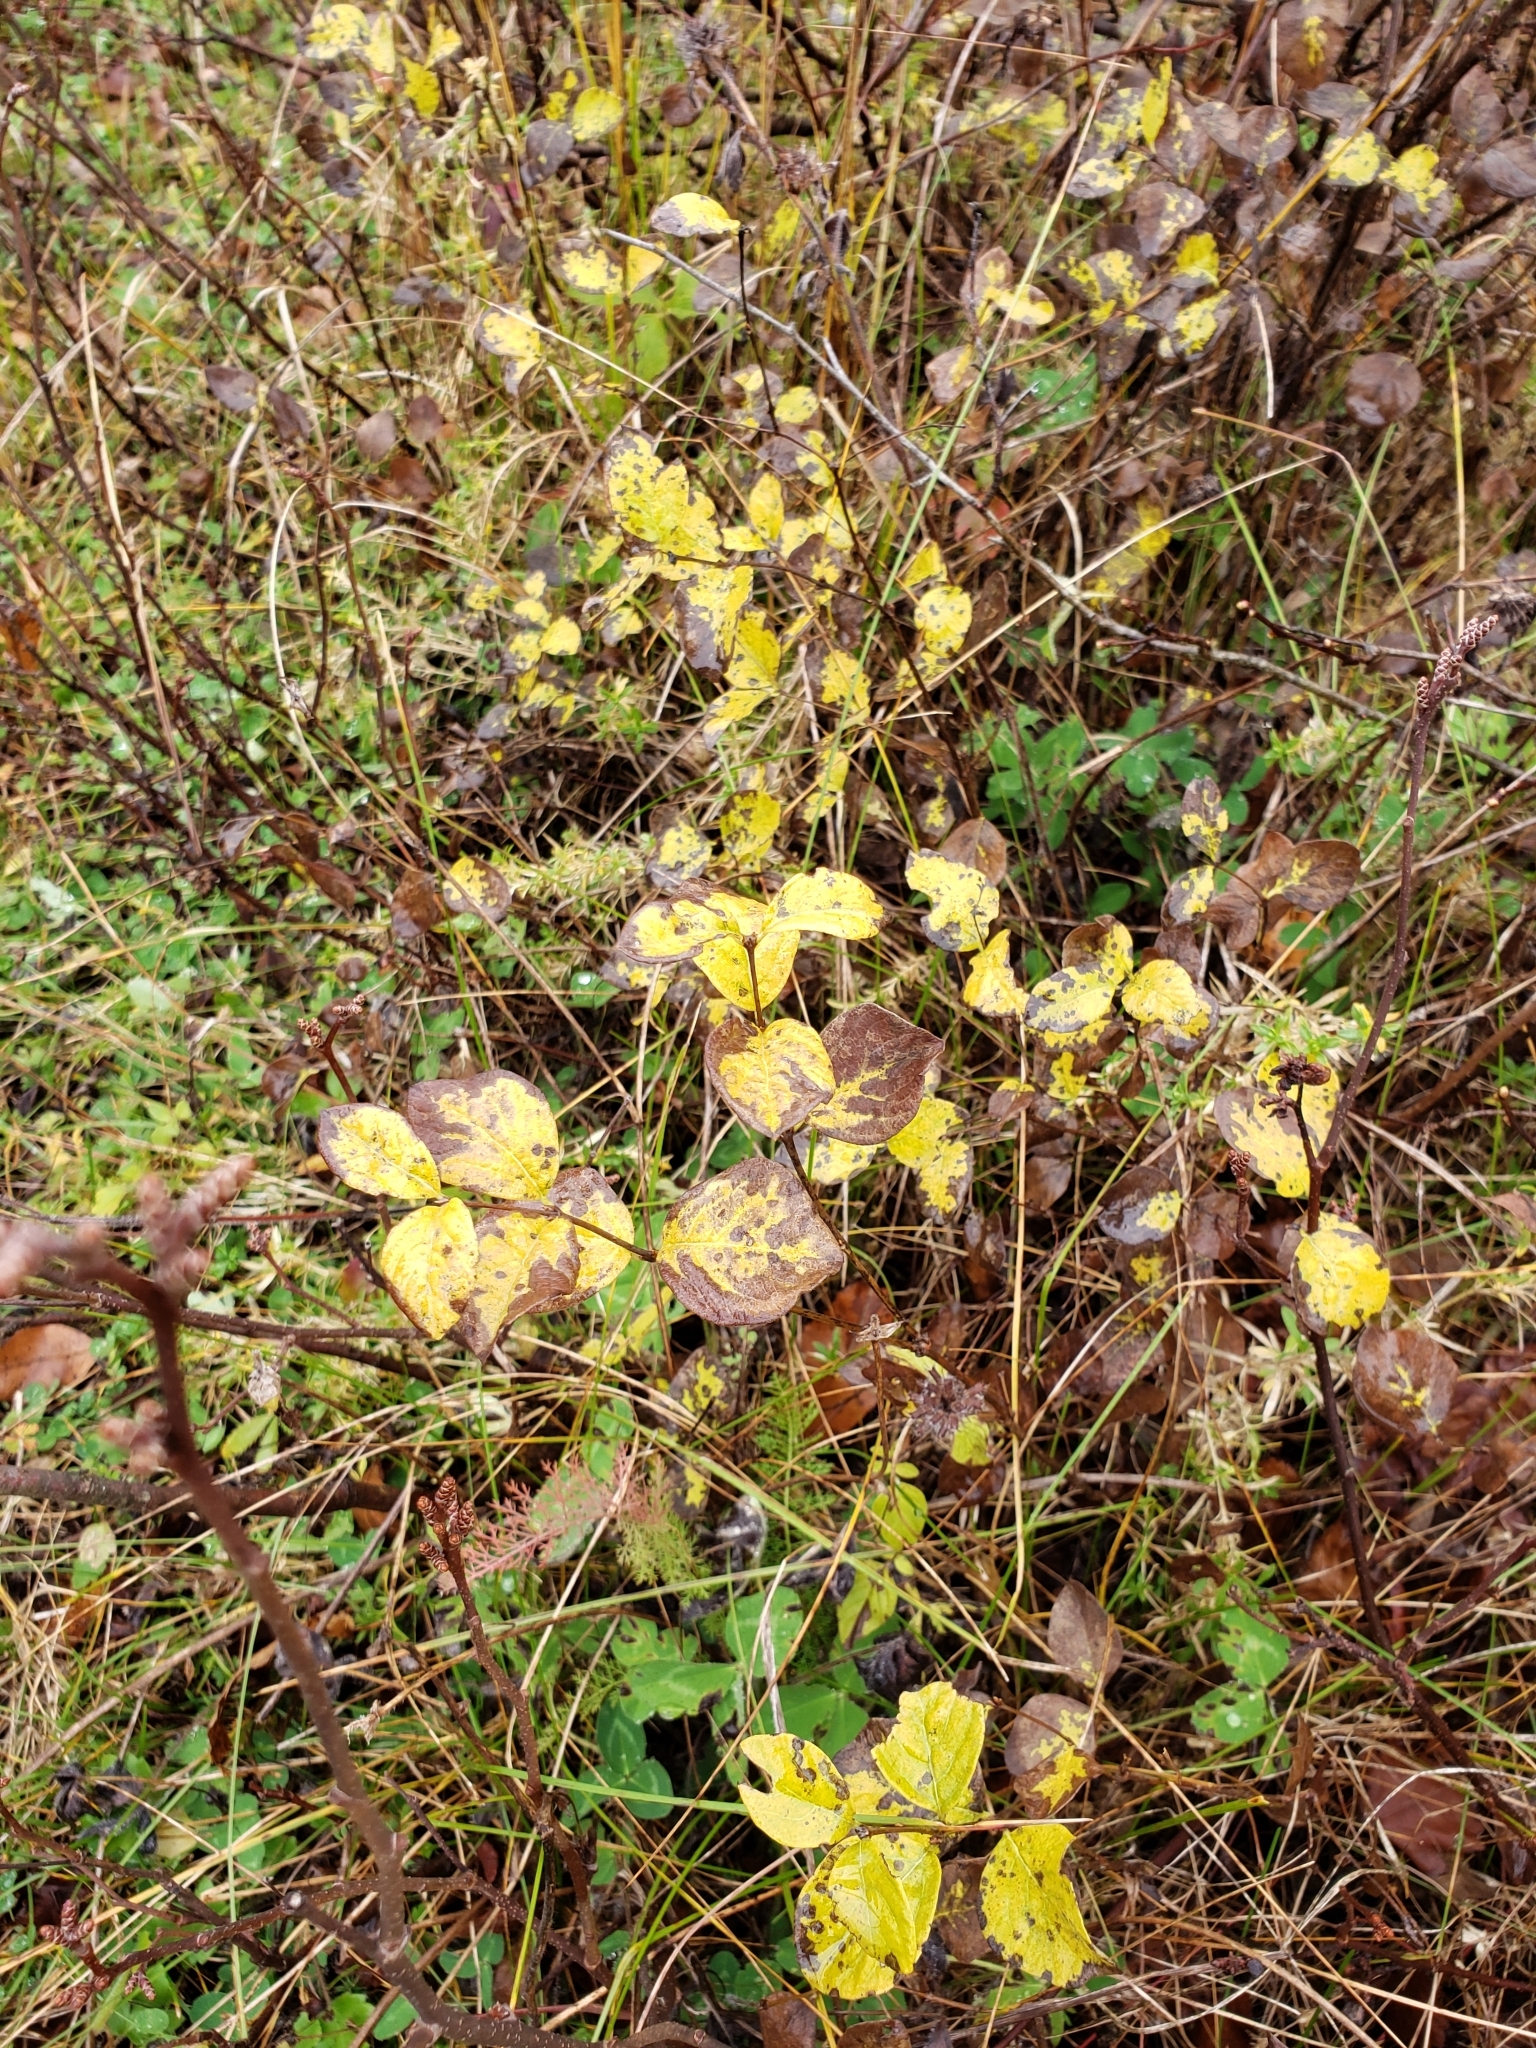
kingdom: Plantae
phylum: Tracheophyta
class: Magnoliopsida
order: Dipsacales
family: Caprifoliaceae
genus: Symphoricarpos
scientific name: Symphoricarpos albus
